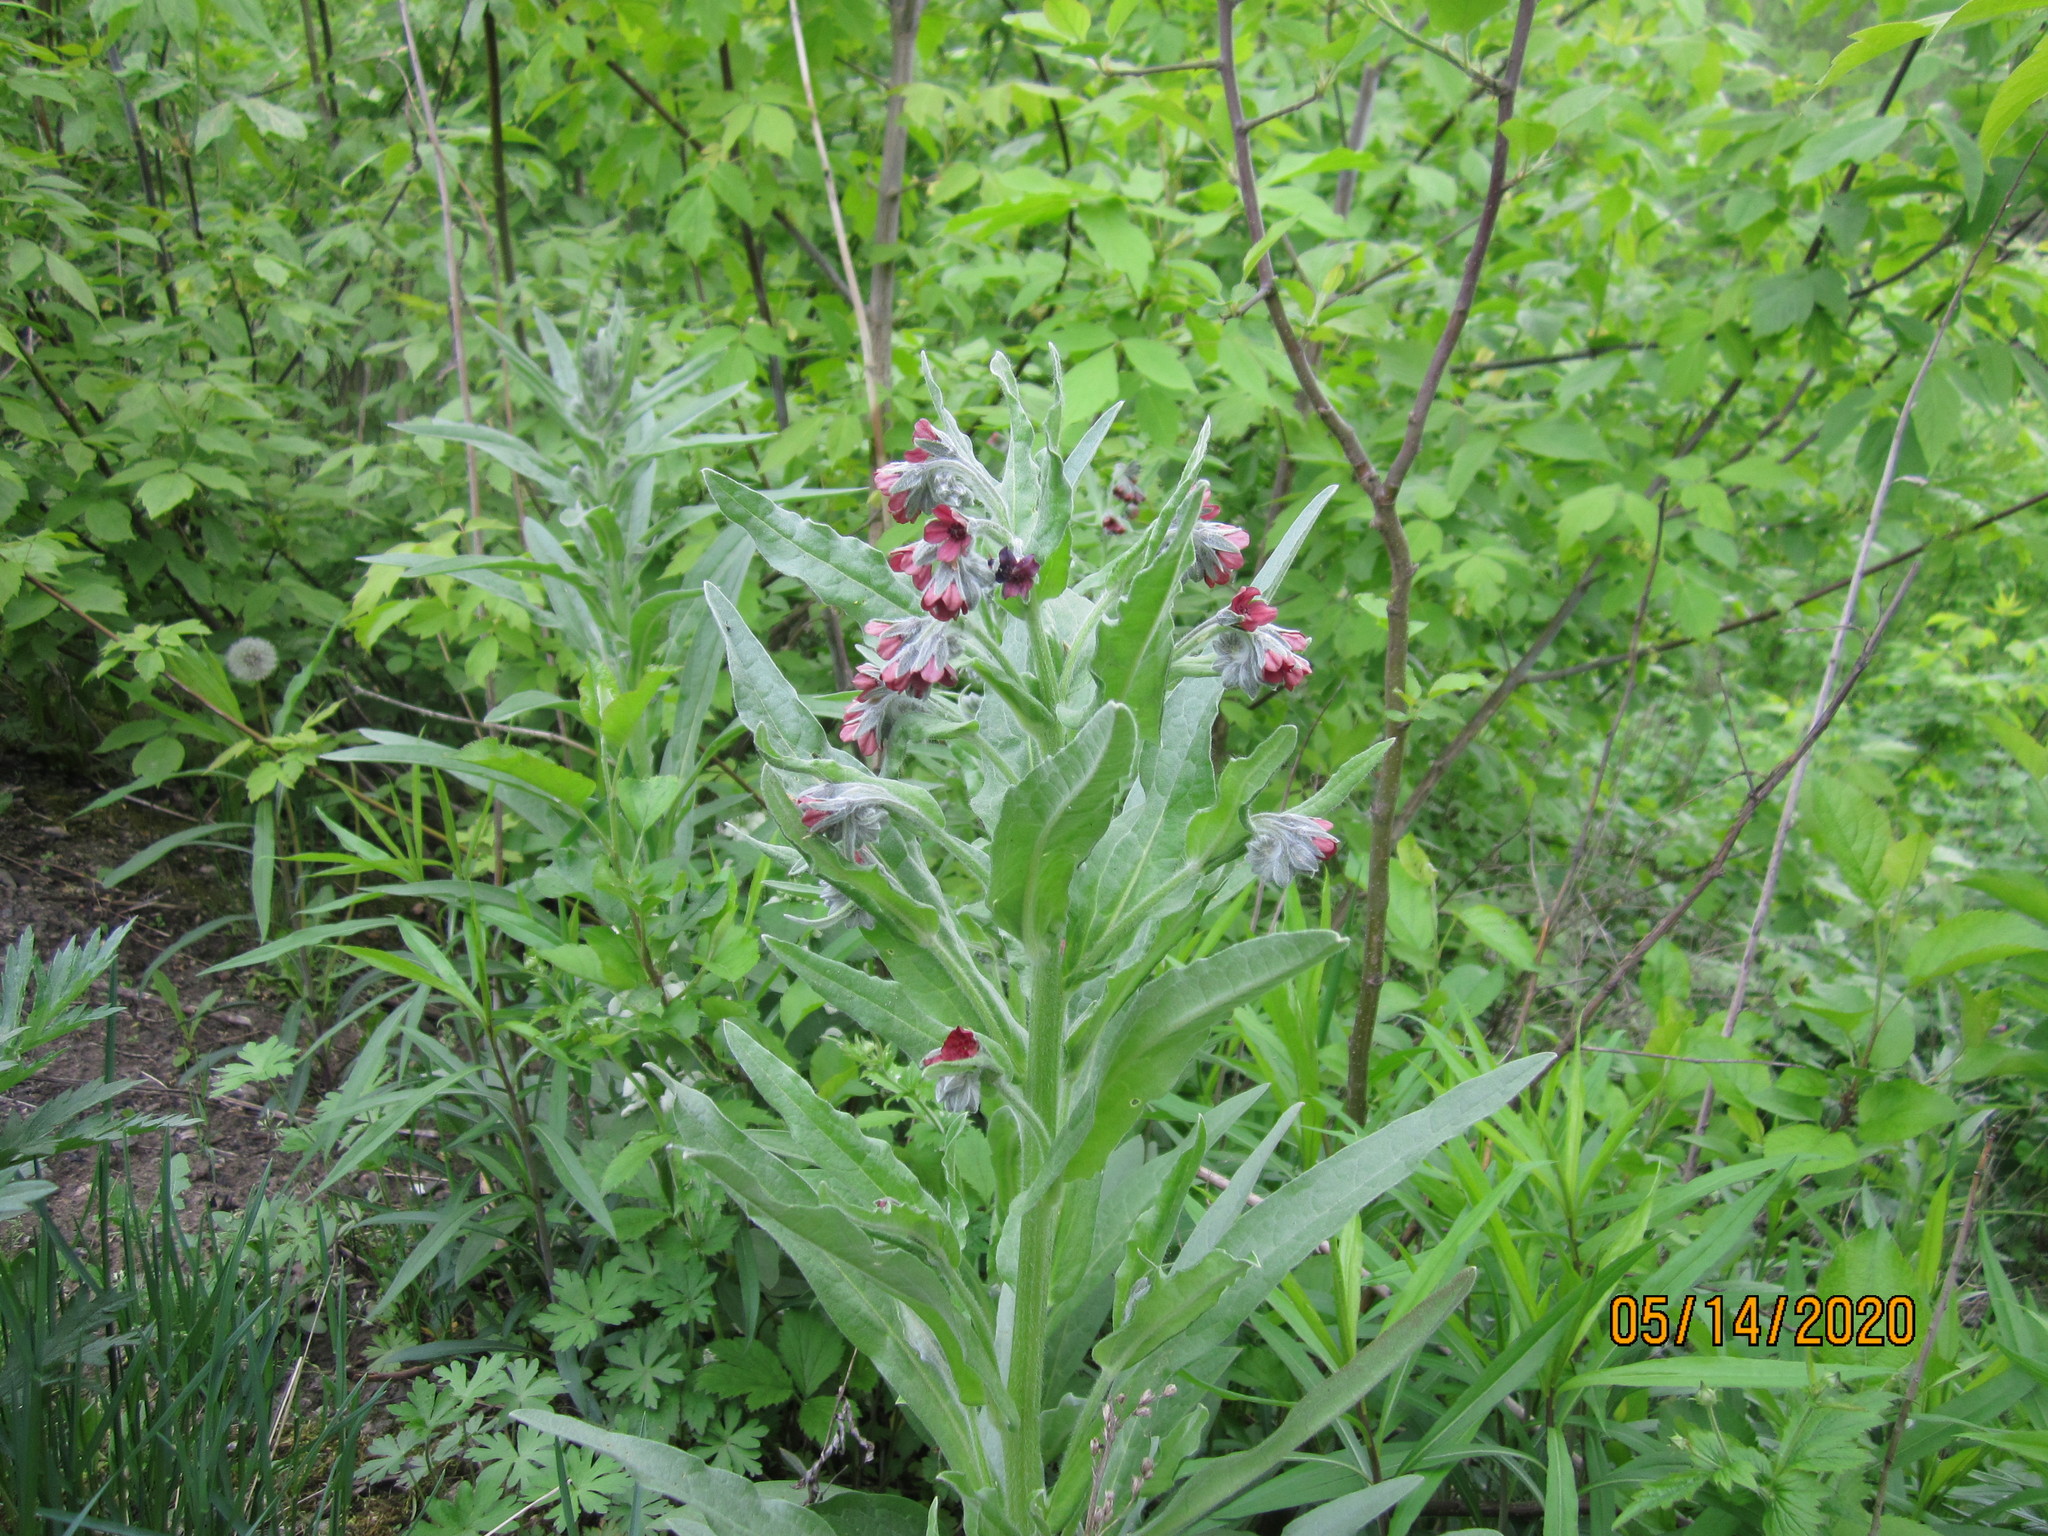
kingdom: Plantae
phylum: Tracheophyta
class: Magnoliopsida
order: Boraginales
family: Boraginaceae
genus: Cynoglossum
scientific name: Cynoglossum officinale
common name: Hound's-tongue
